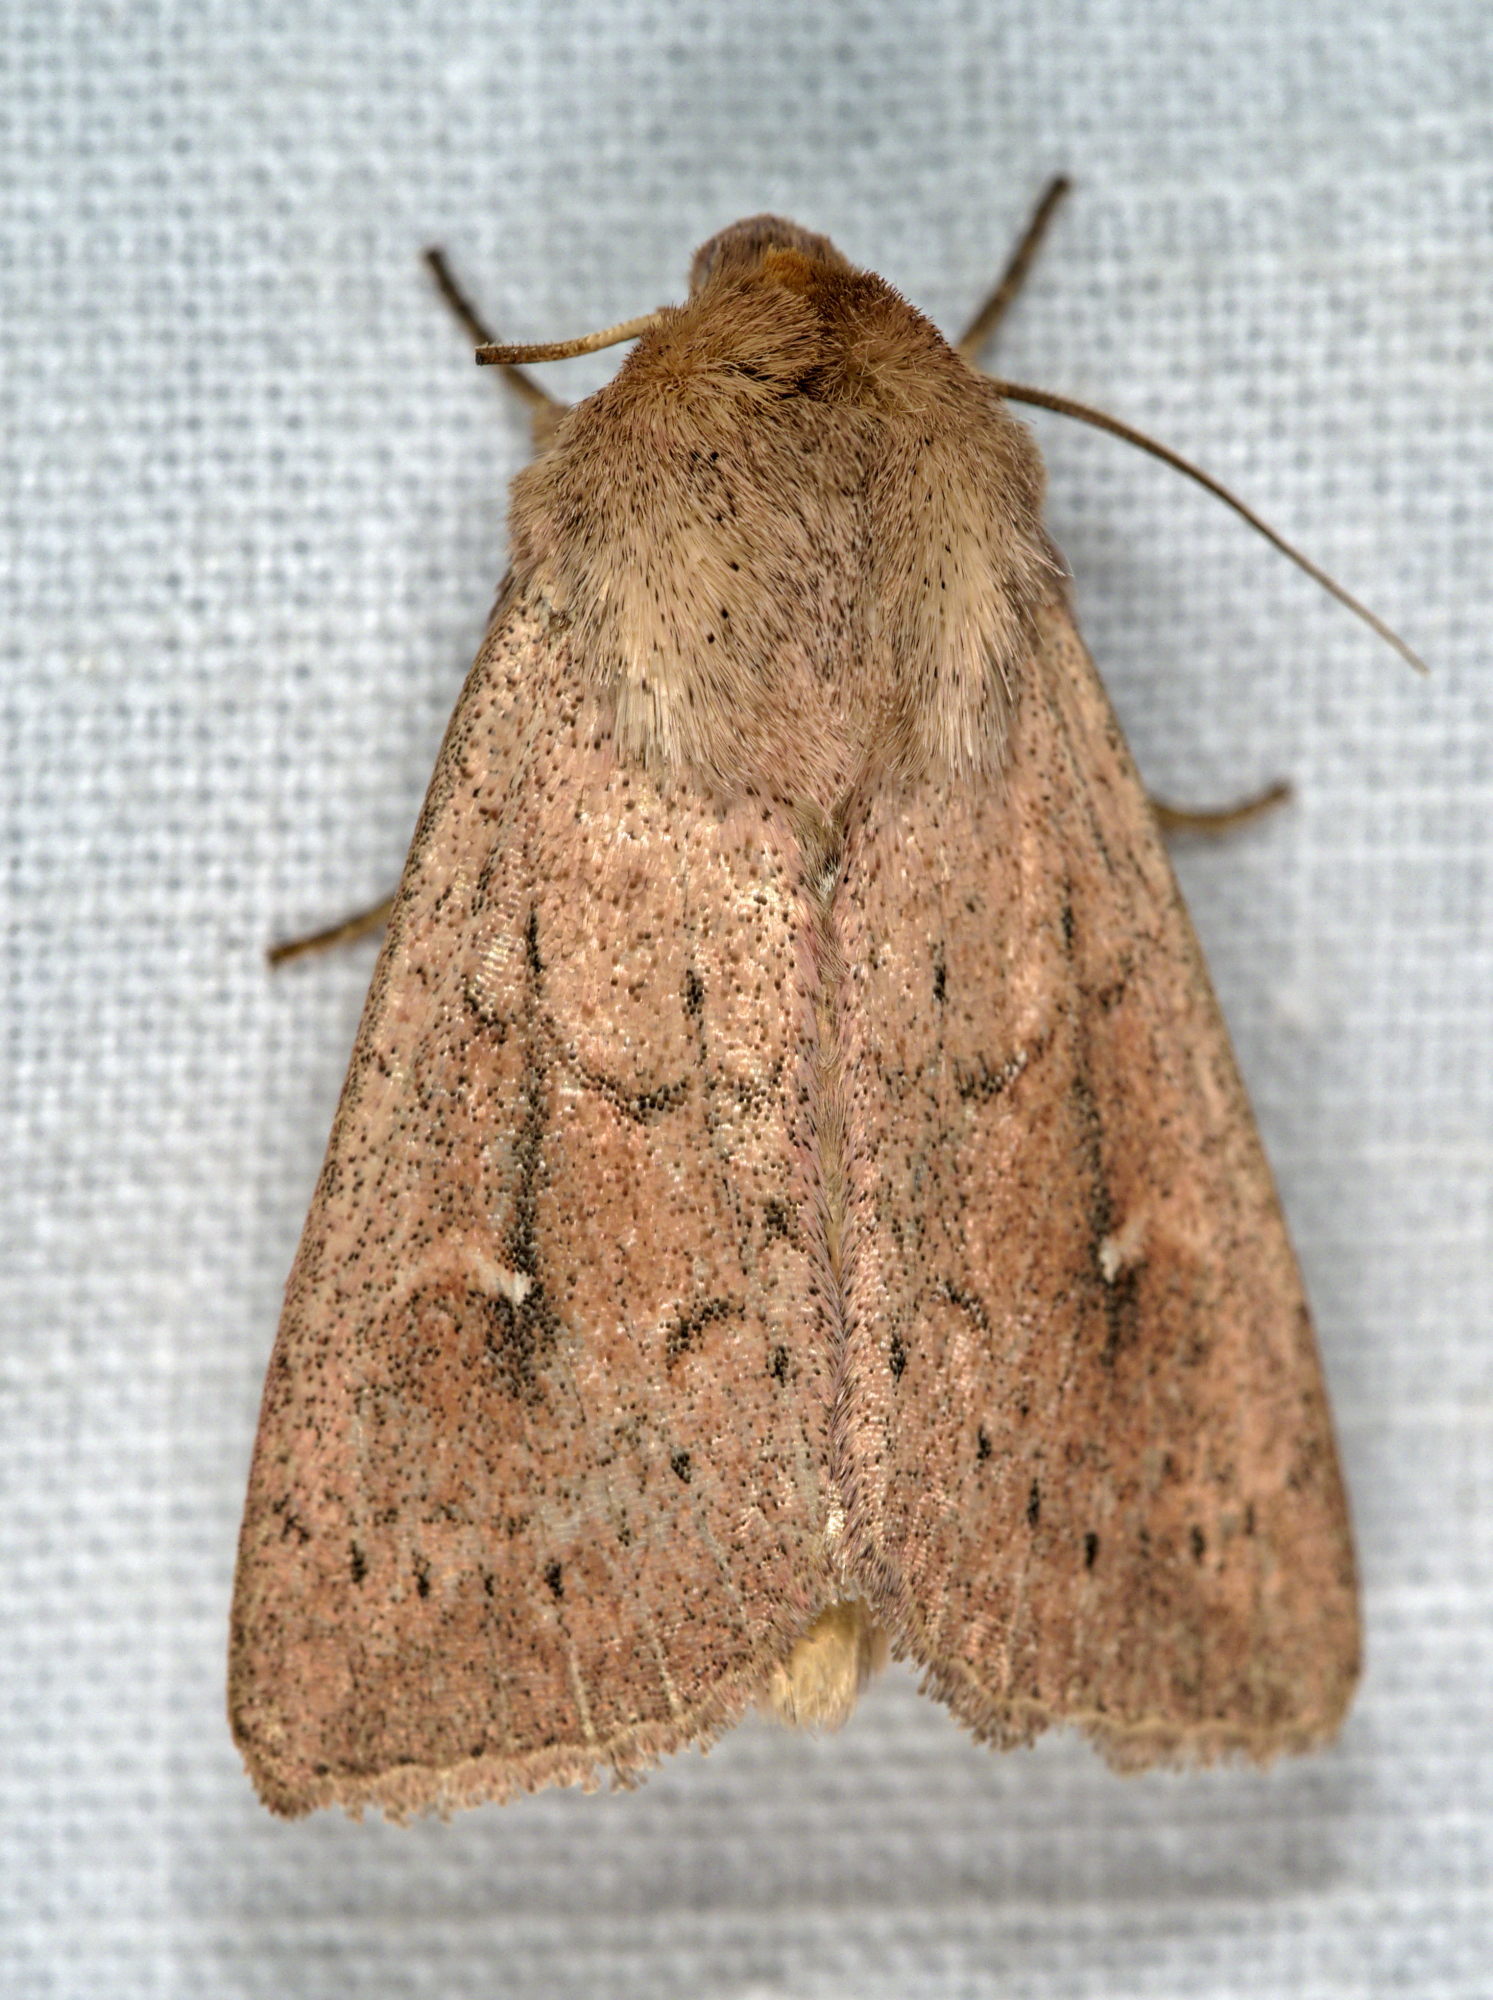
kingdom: Animalia
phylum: Arthropoda
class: Insecta
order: Lepidoptera
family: Noctuidae
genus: Mythimna
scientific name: Mythimna ferrago
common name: Clay
